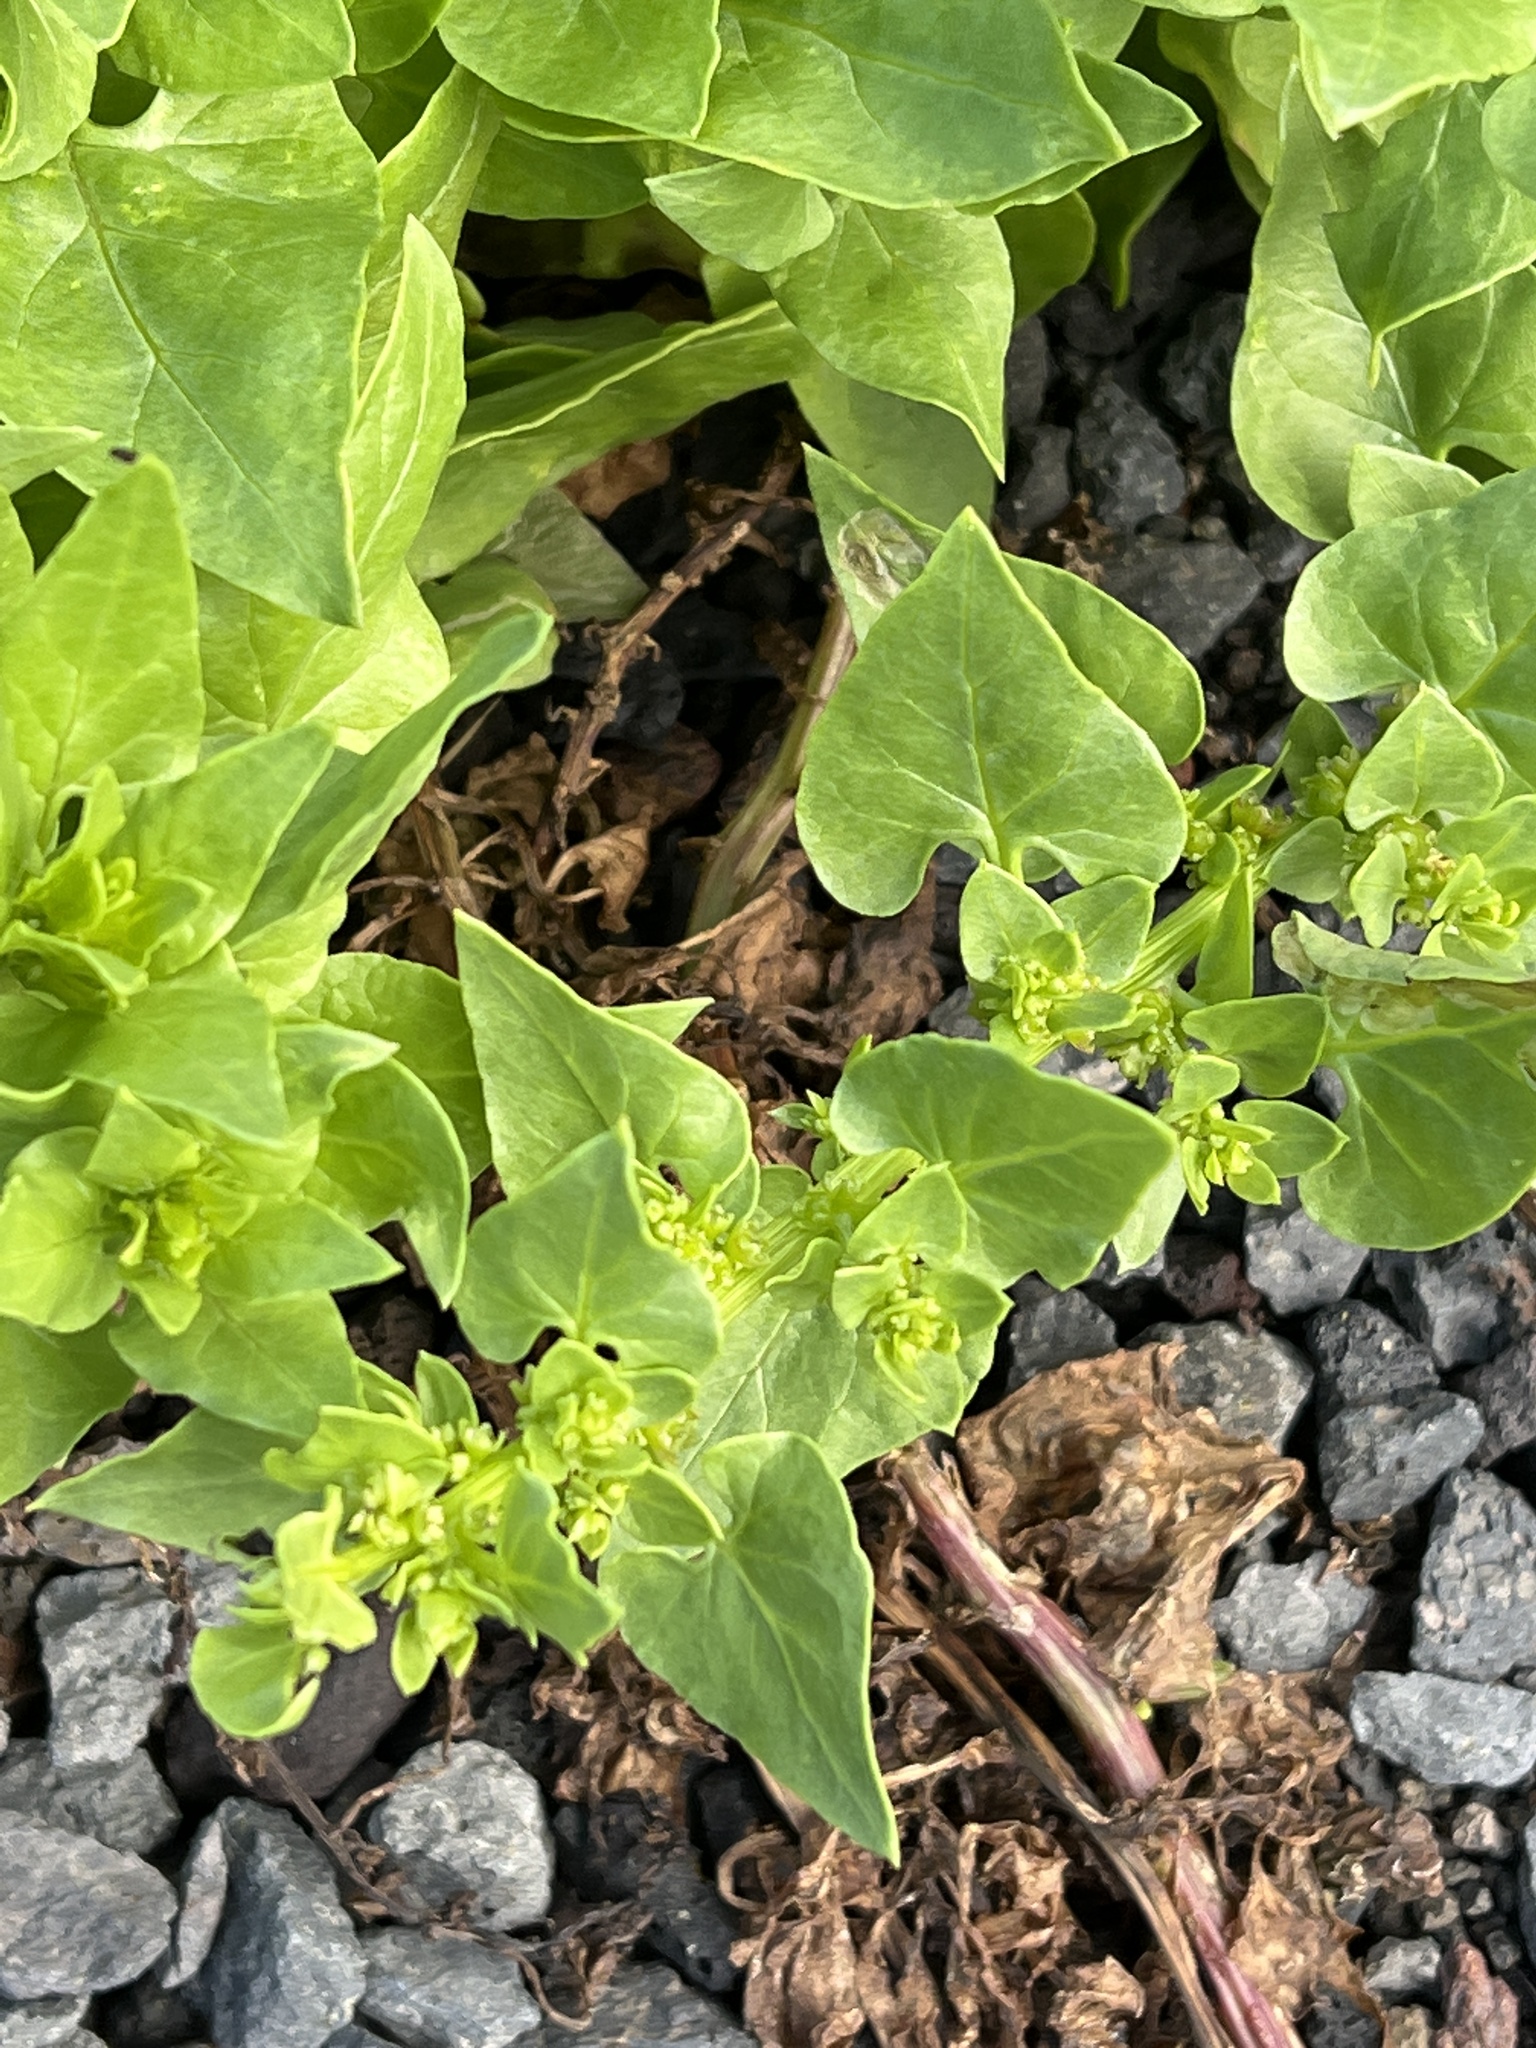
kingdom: Plantae
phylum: Tracheophyta
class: Magnoliopsida
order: Caryophyllales
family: Amaranthaceae
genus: Patellifolia
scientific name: Patellifolia procumbens
